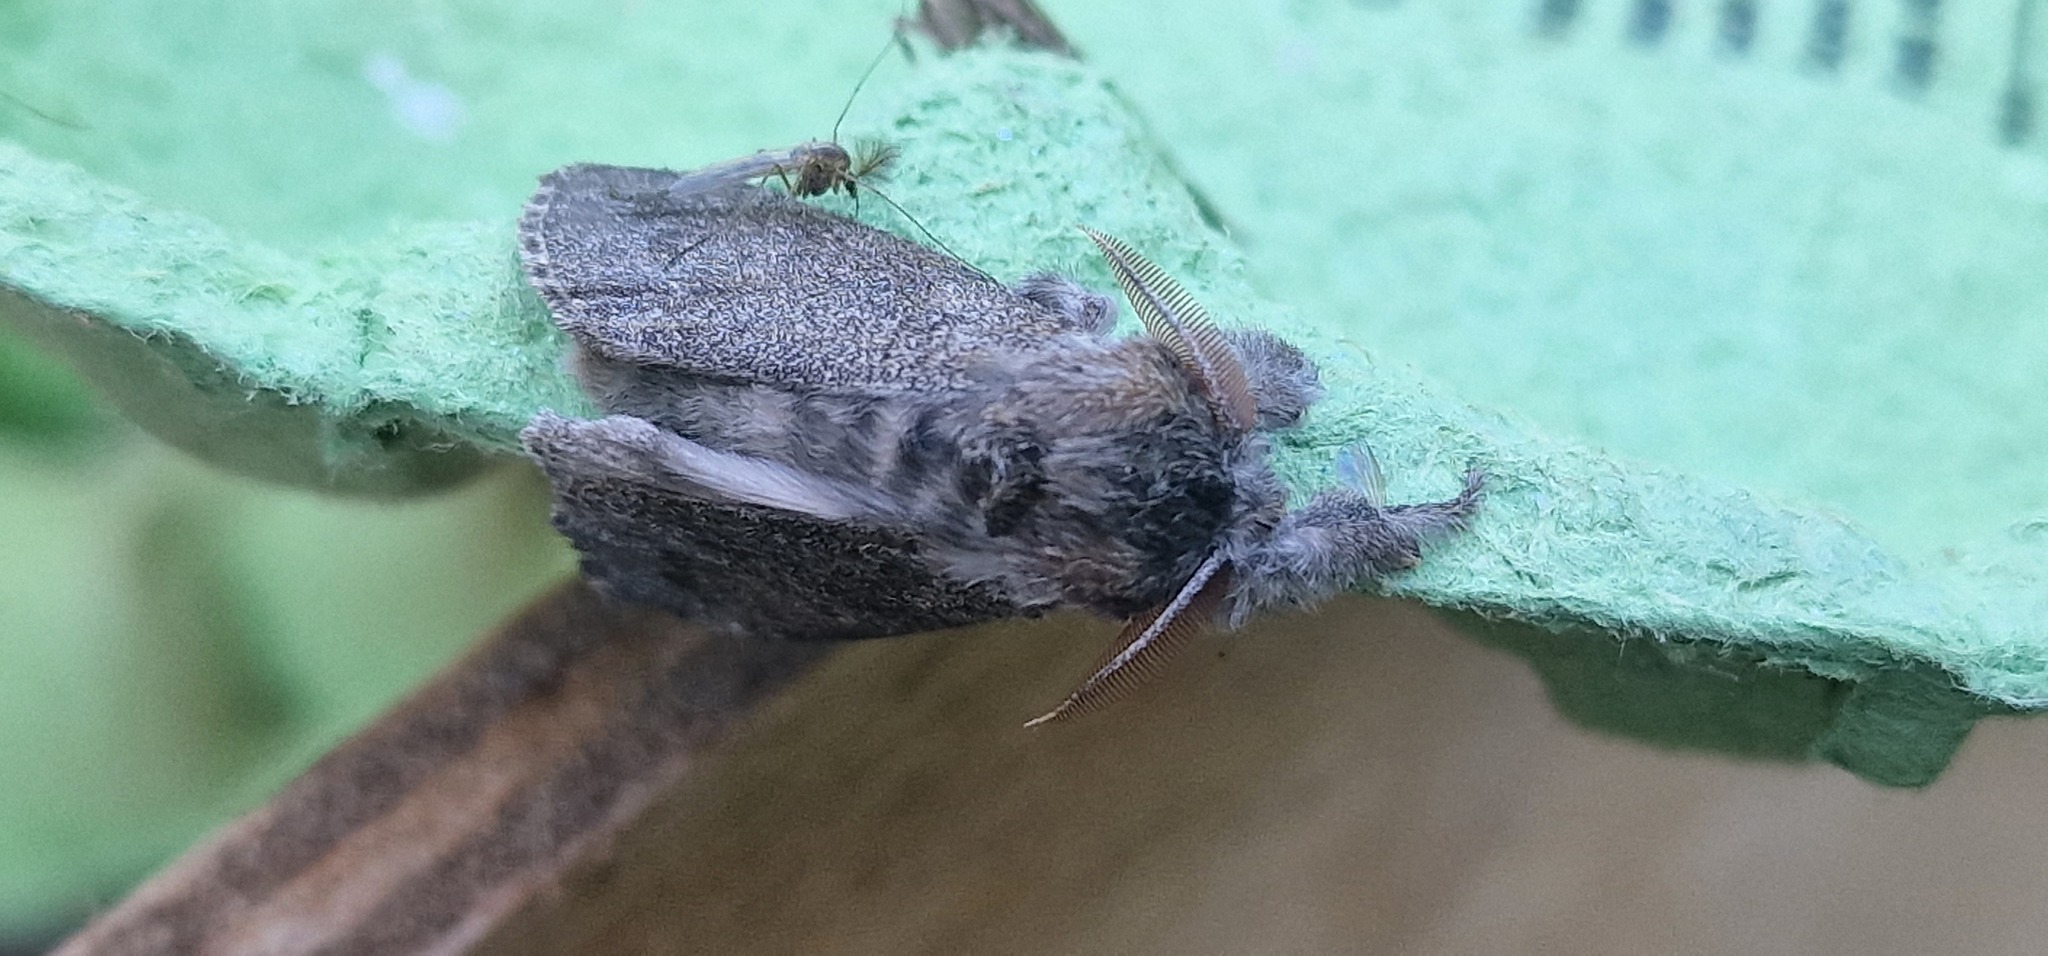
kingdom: Animalia
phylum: Arthropoda
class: Insecta
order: Lepidoptera
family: Erebidae
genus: Calliteara
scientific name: Calliteara pudibunda
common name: Pale tussock
